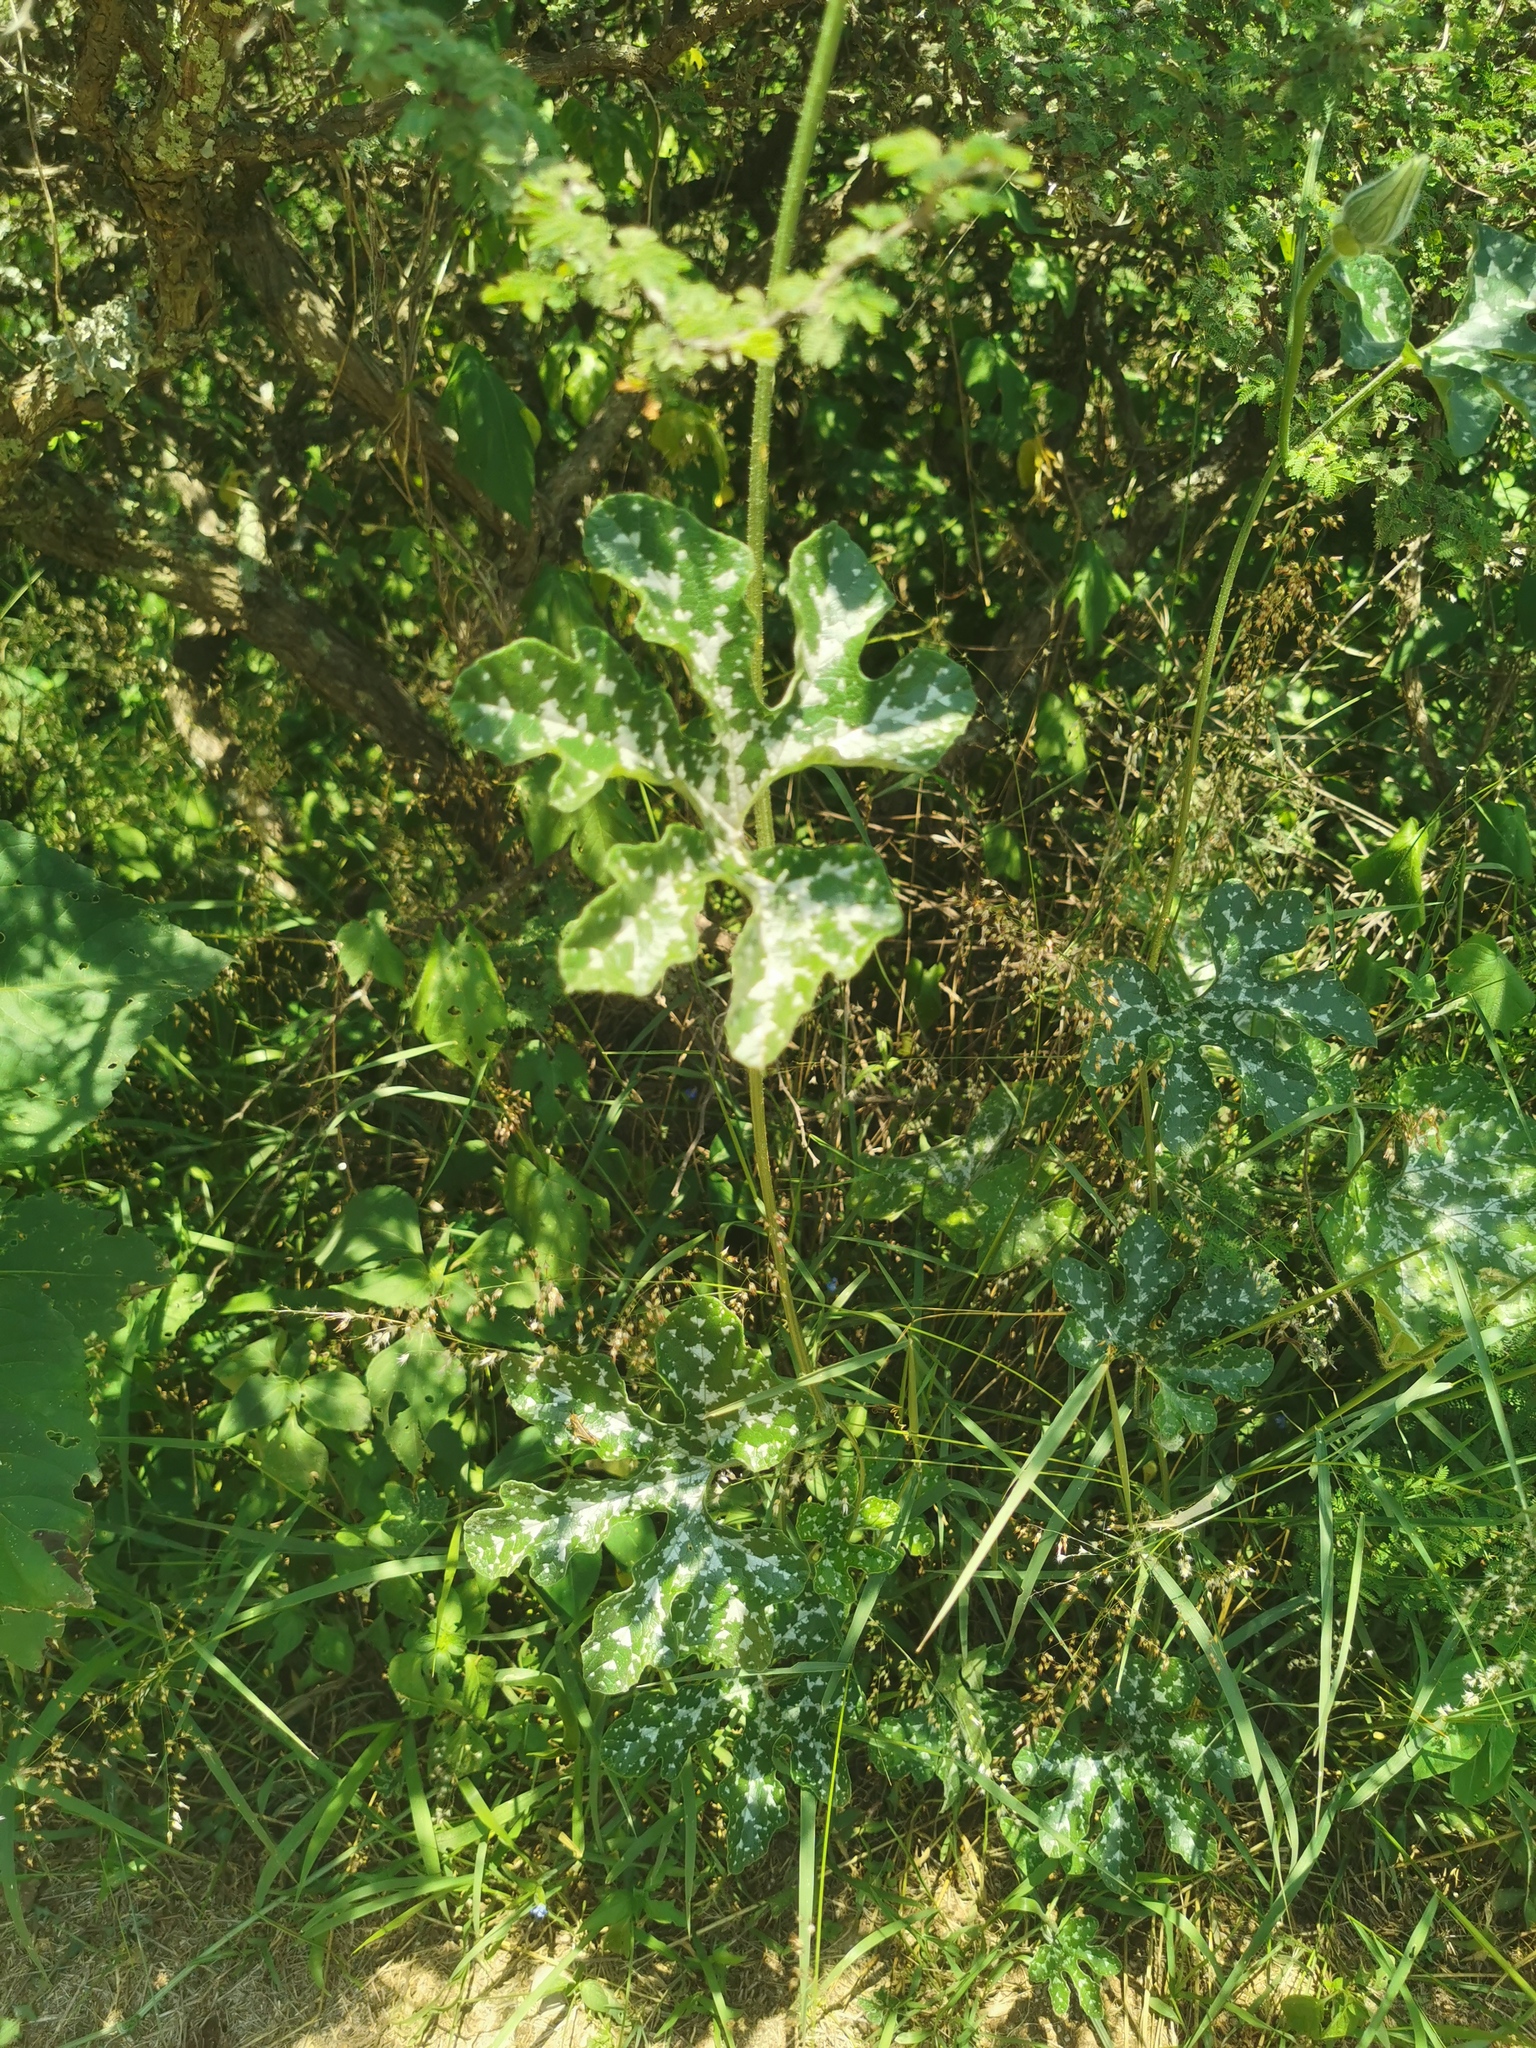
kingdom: Plantae
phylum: Tracheophyta
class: Magnoliopsida
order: Cucurbitales
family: Cucurbitaceae
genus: Cucurbita
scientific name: Cucurbita pedatifolia
